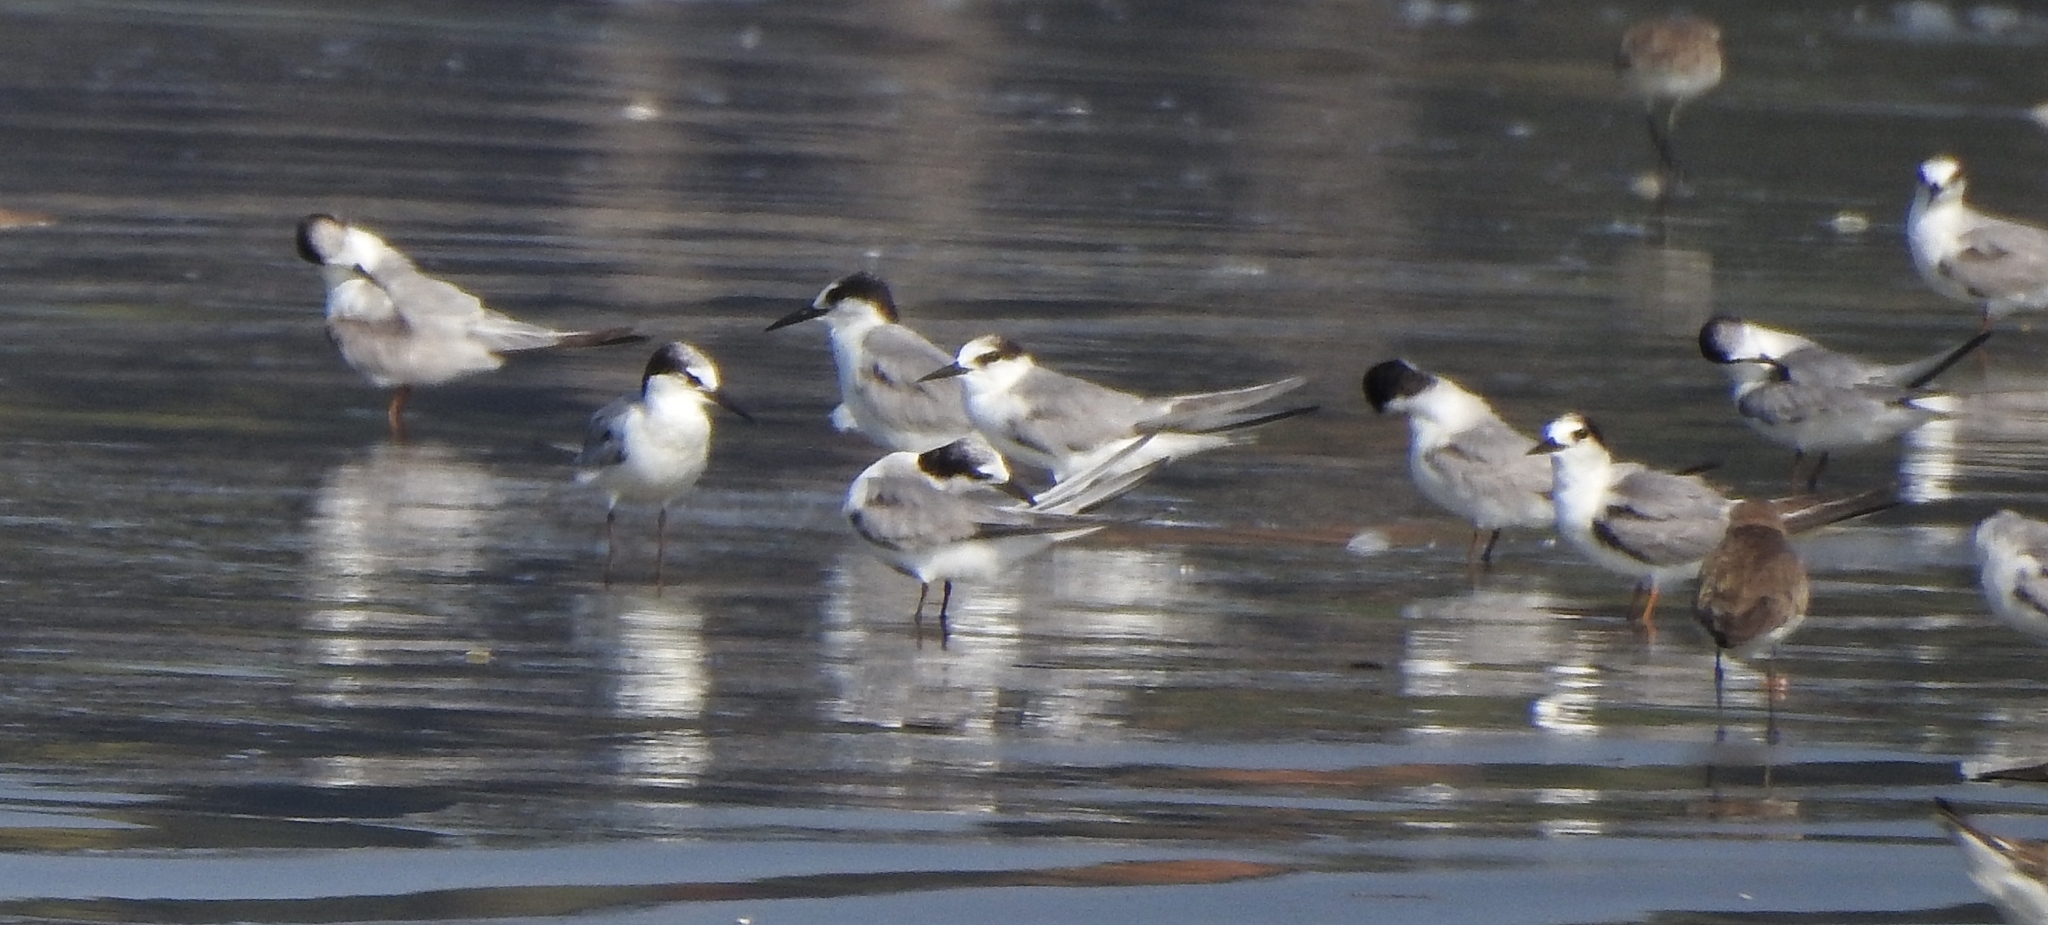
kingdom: Animalia
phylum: Chordata
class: Aves
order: Charadriiformes
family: Laridae
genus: Sternula
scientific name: Sternula albifrons
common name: Little tern
